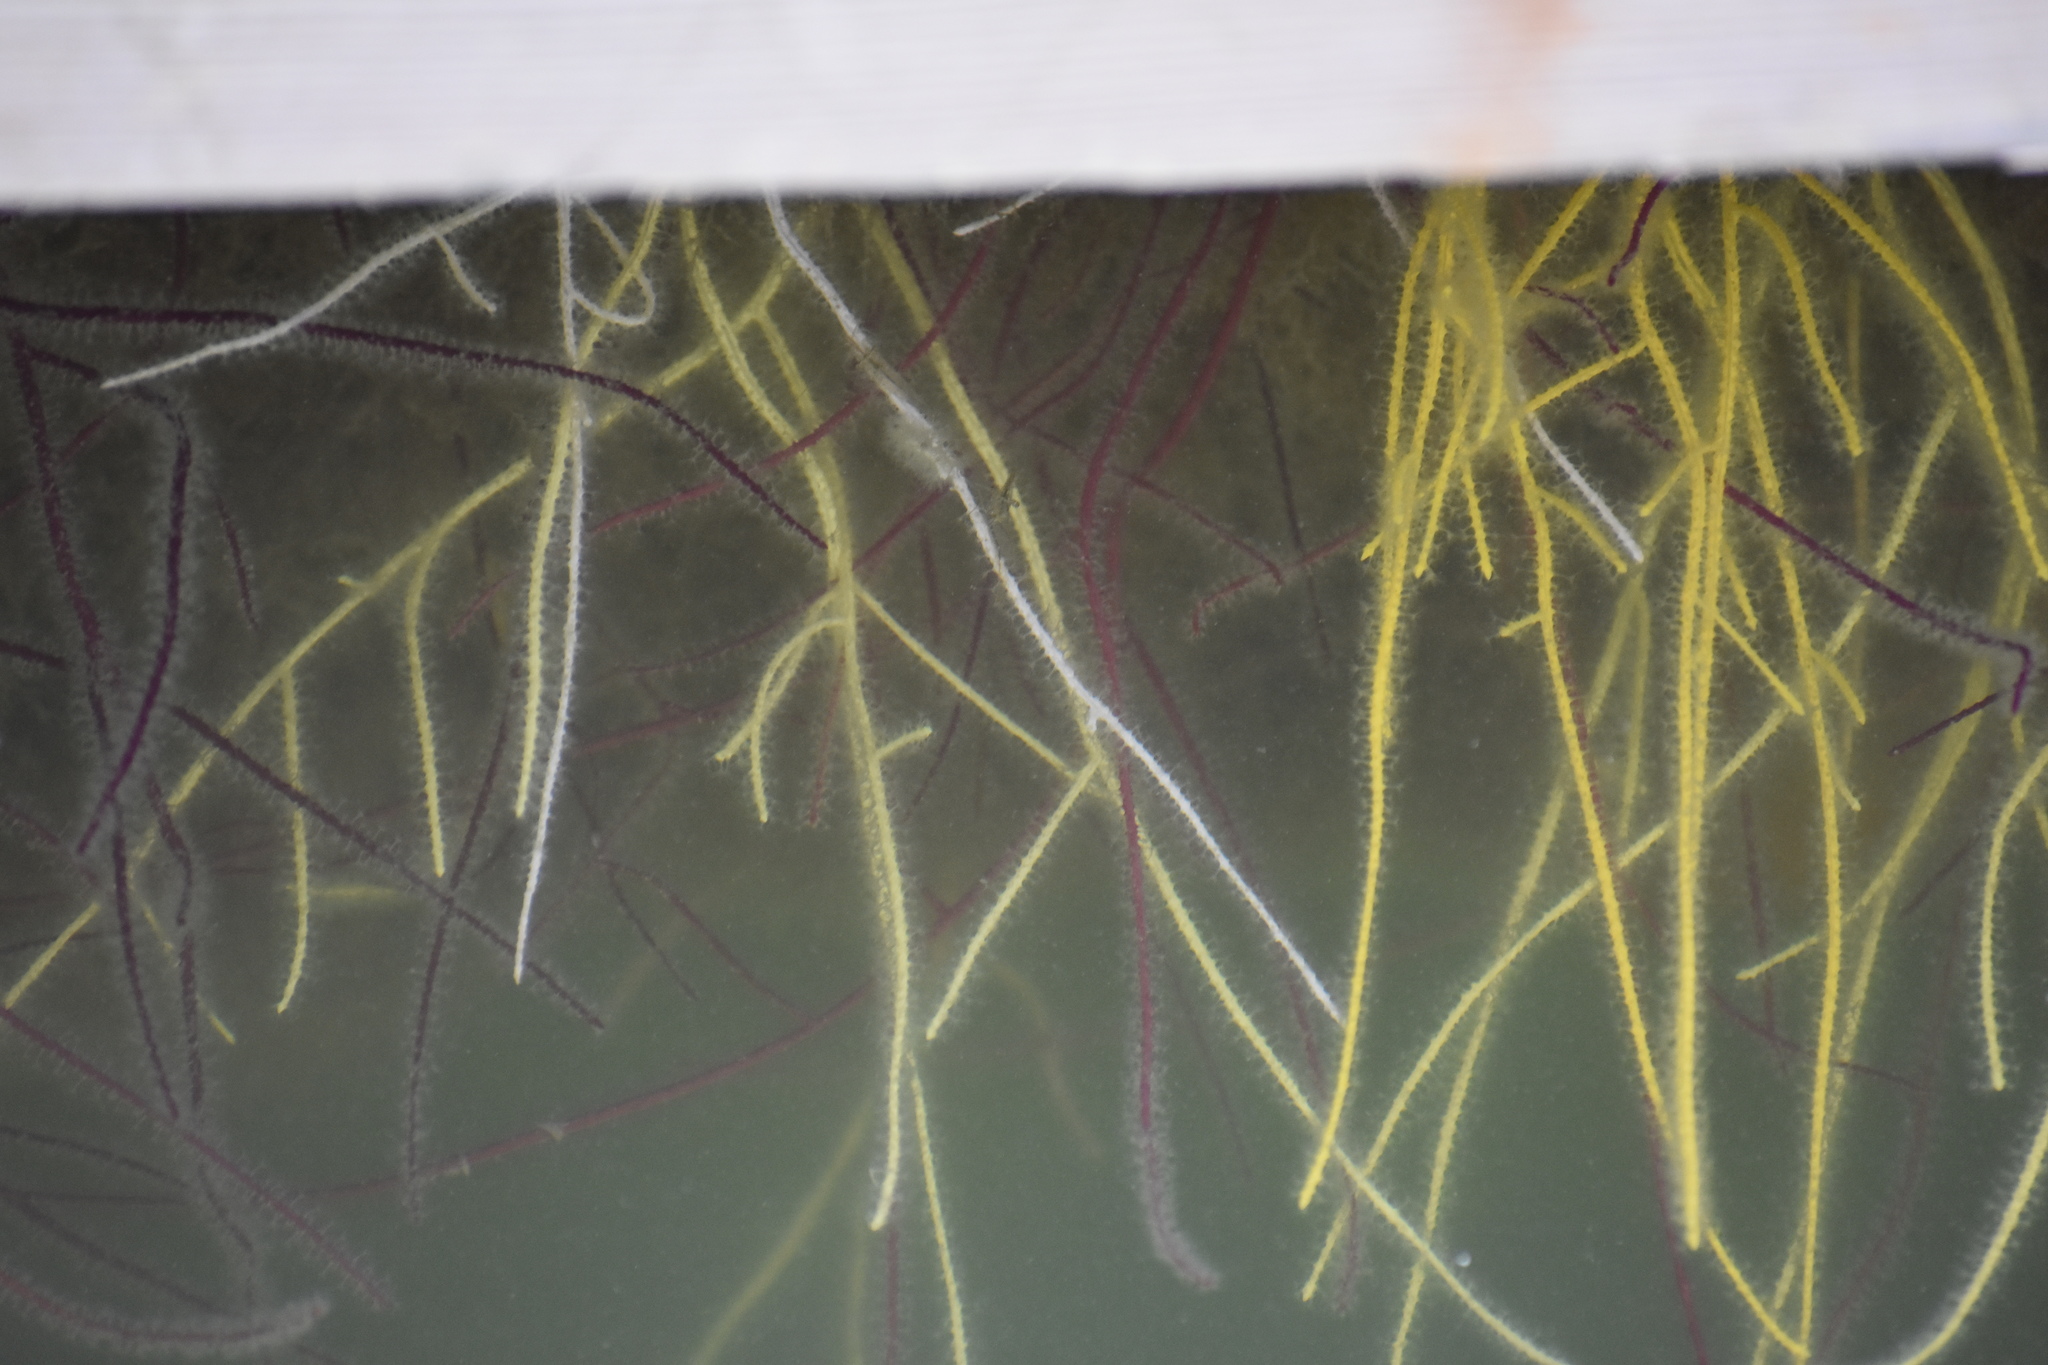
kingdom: Animalia
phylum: Cnidaria
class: Anthozoa
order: Malacalcyonacea
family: Gorgoniidae
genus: Leptogorgia
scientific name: Leptogorgia virgulata
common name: Colorful sea whip
